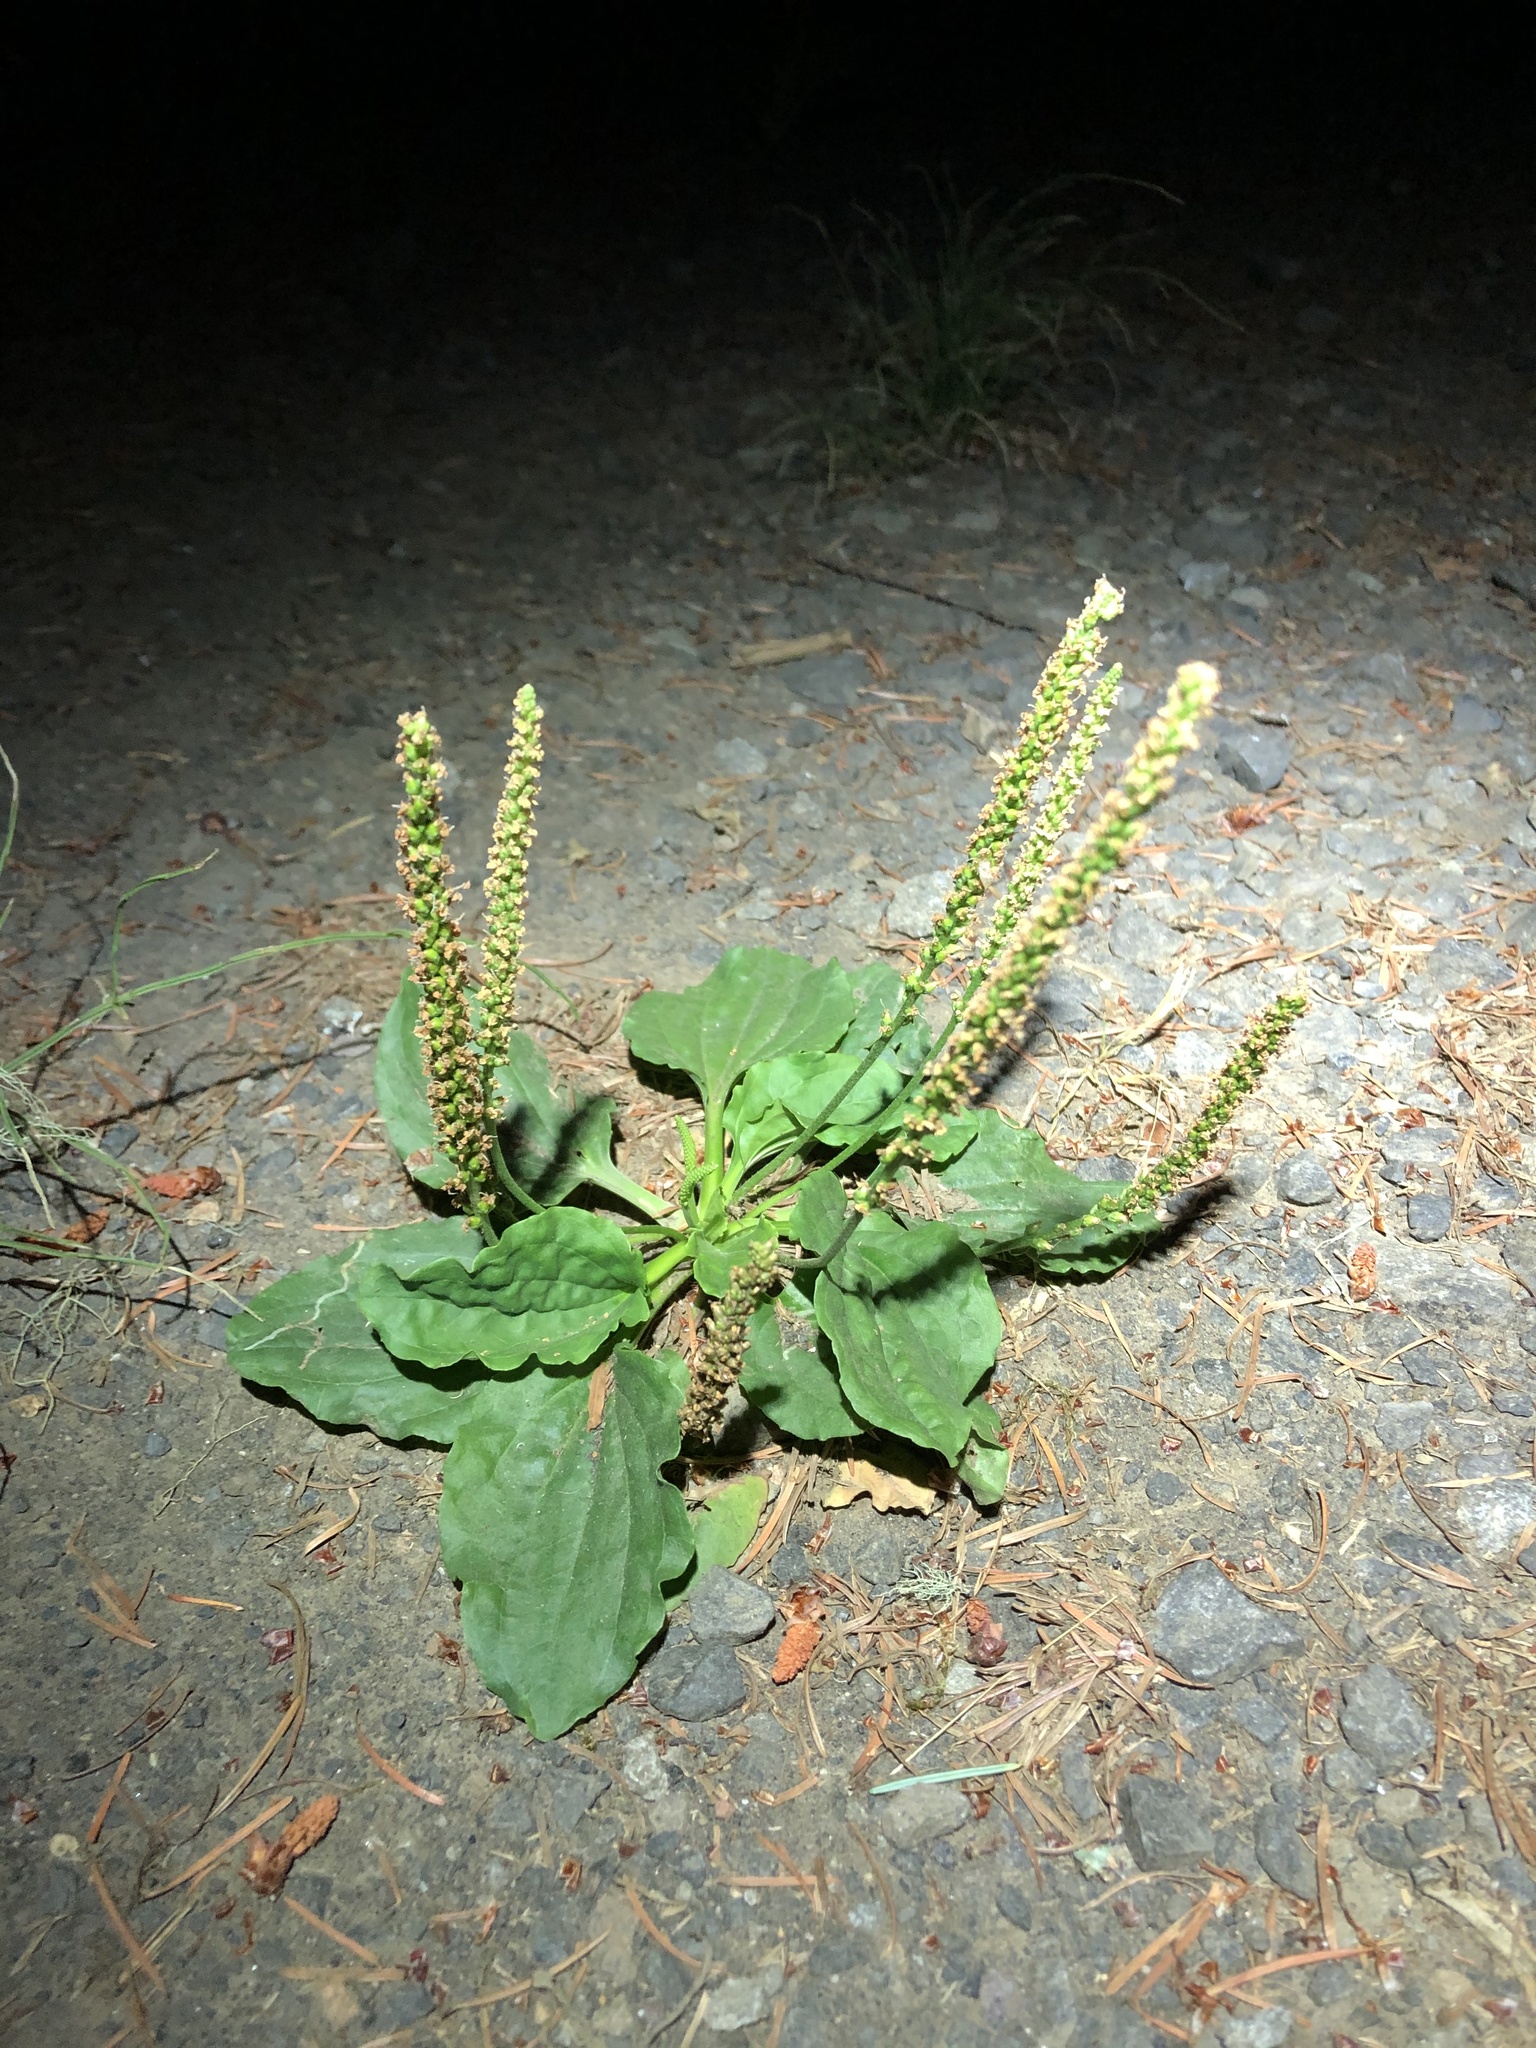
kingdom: Plantae
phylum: Tracheophyta
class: Magnoliopsida
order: Lamiales
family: Plantaginaceae
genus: Plantago
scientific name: Plantago major
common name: Common plantain
